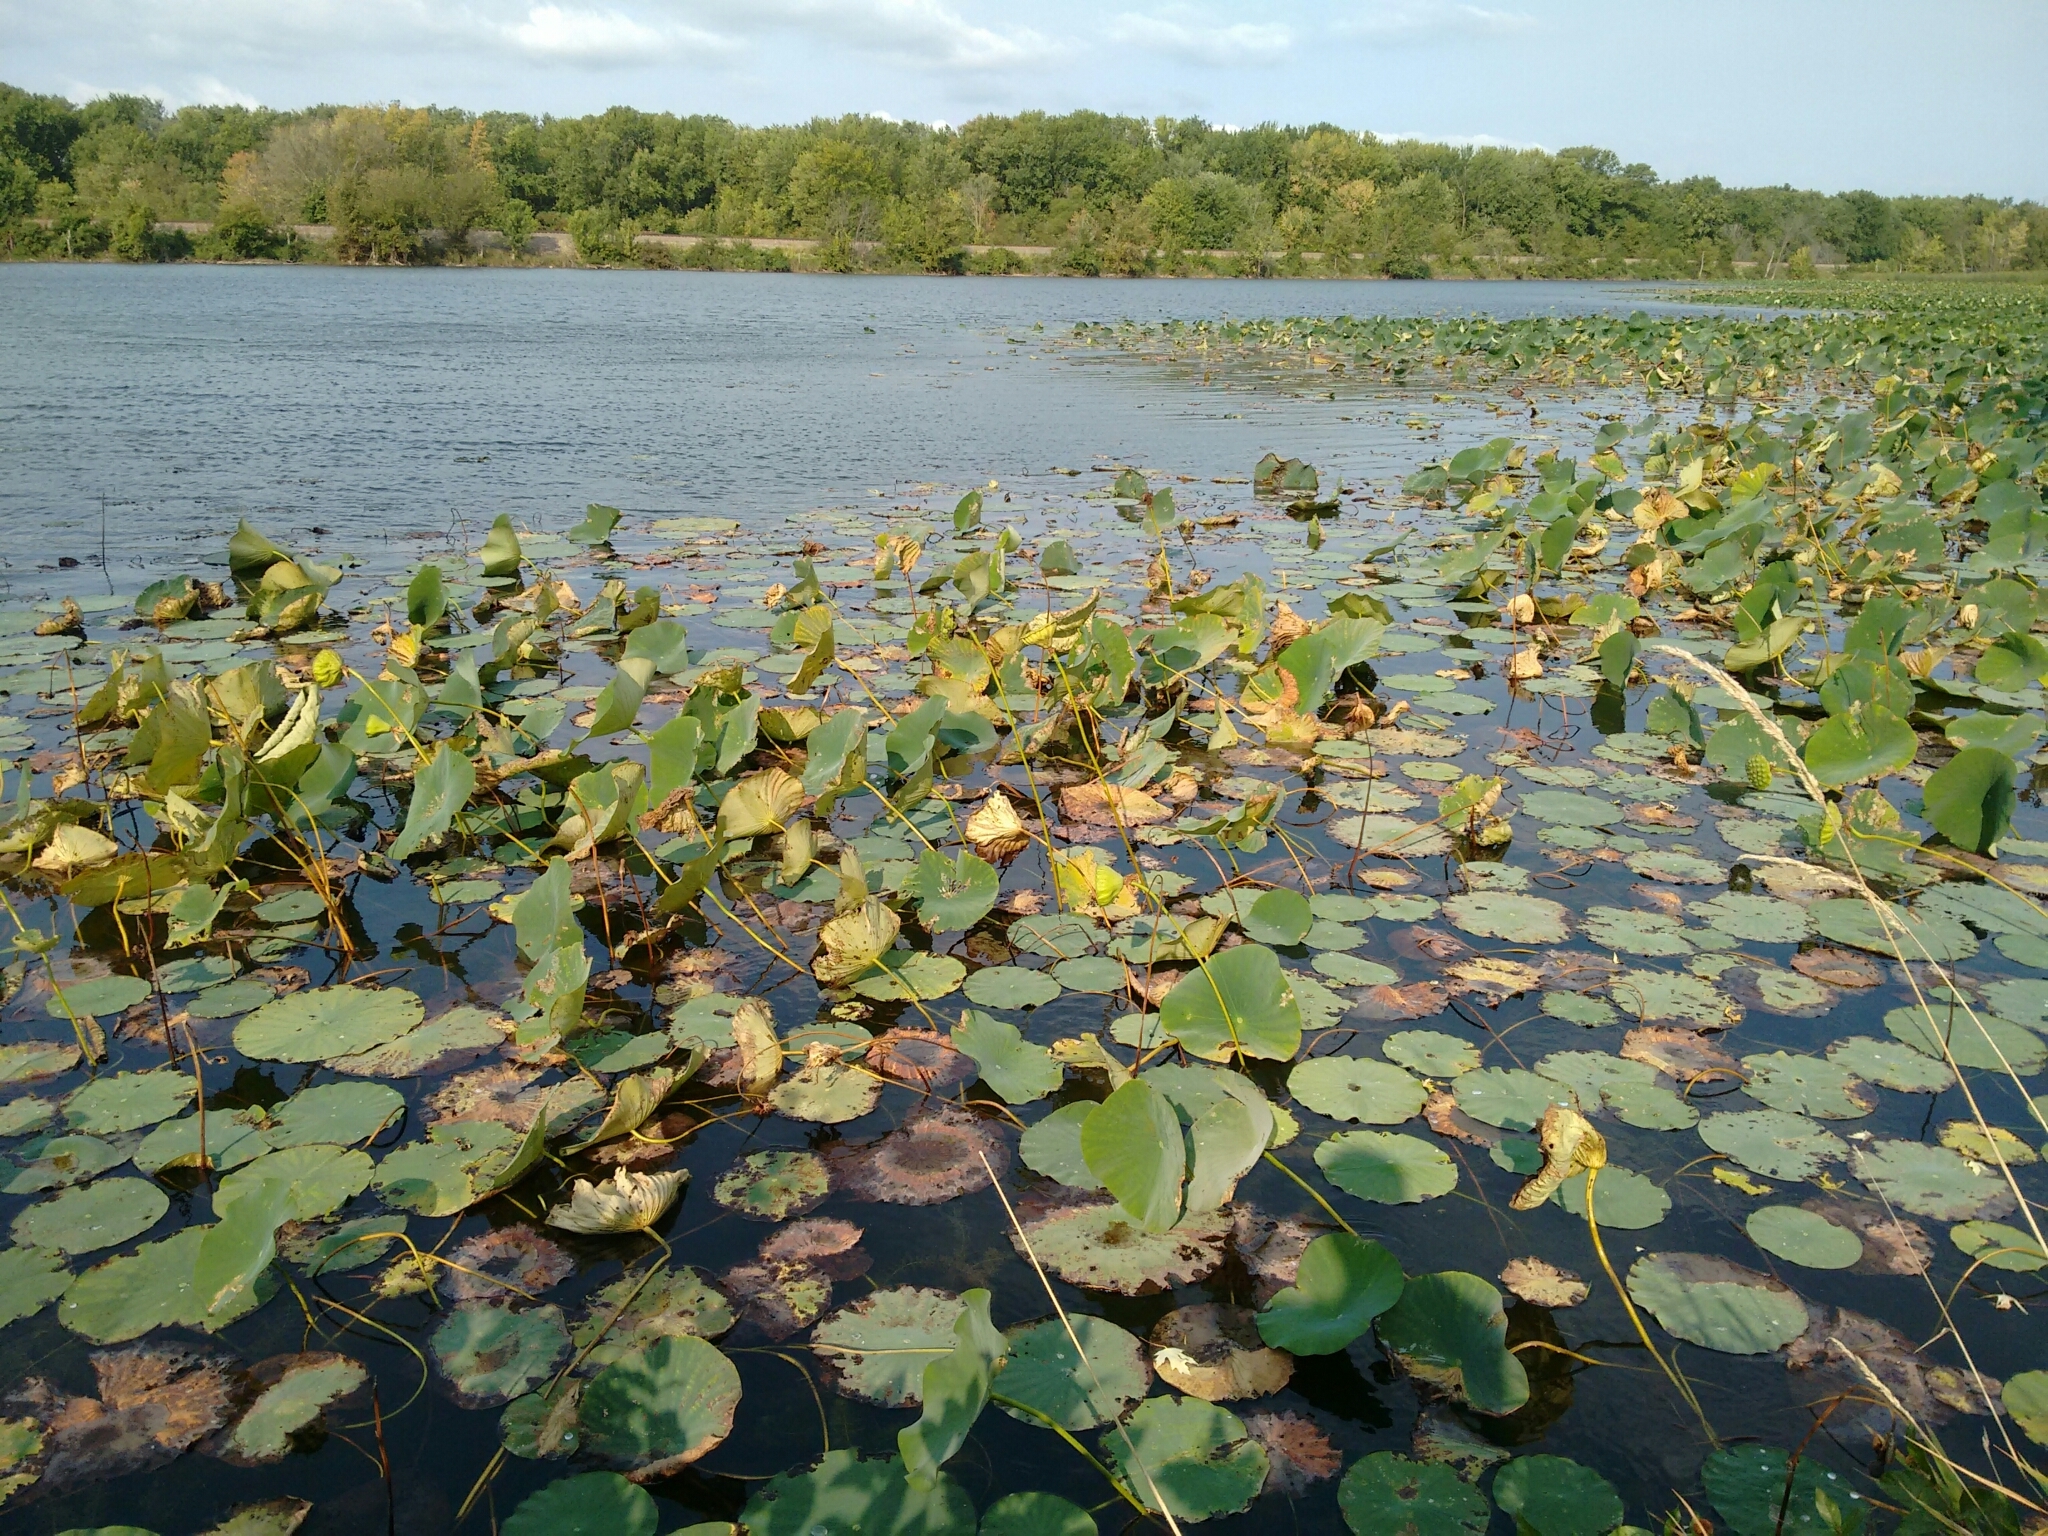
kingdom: Plantae
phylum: Tracheophyta
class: Magnoliopsida
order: Proteales
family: Nelumbonaceae
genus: Nelumbo
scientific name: Nelumbo lutea
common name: American lotus
